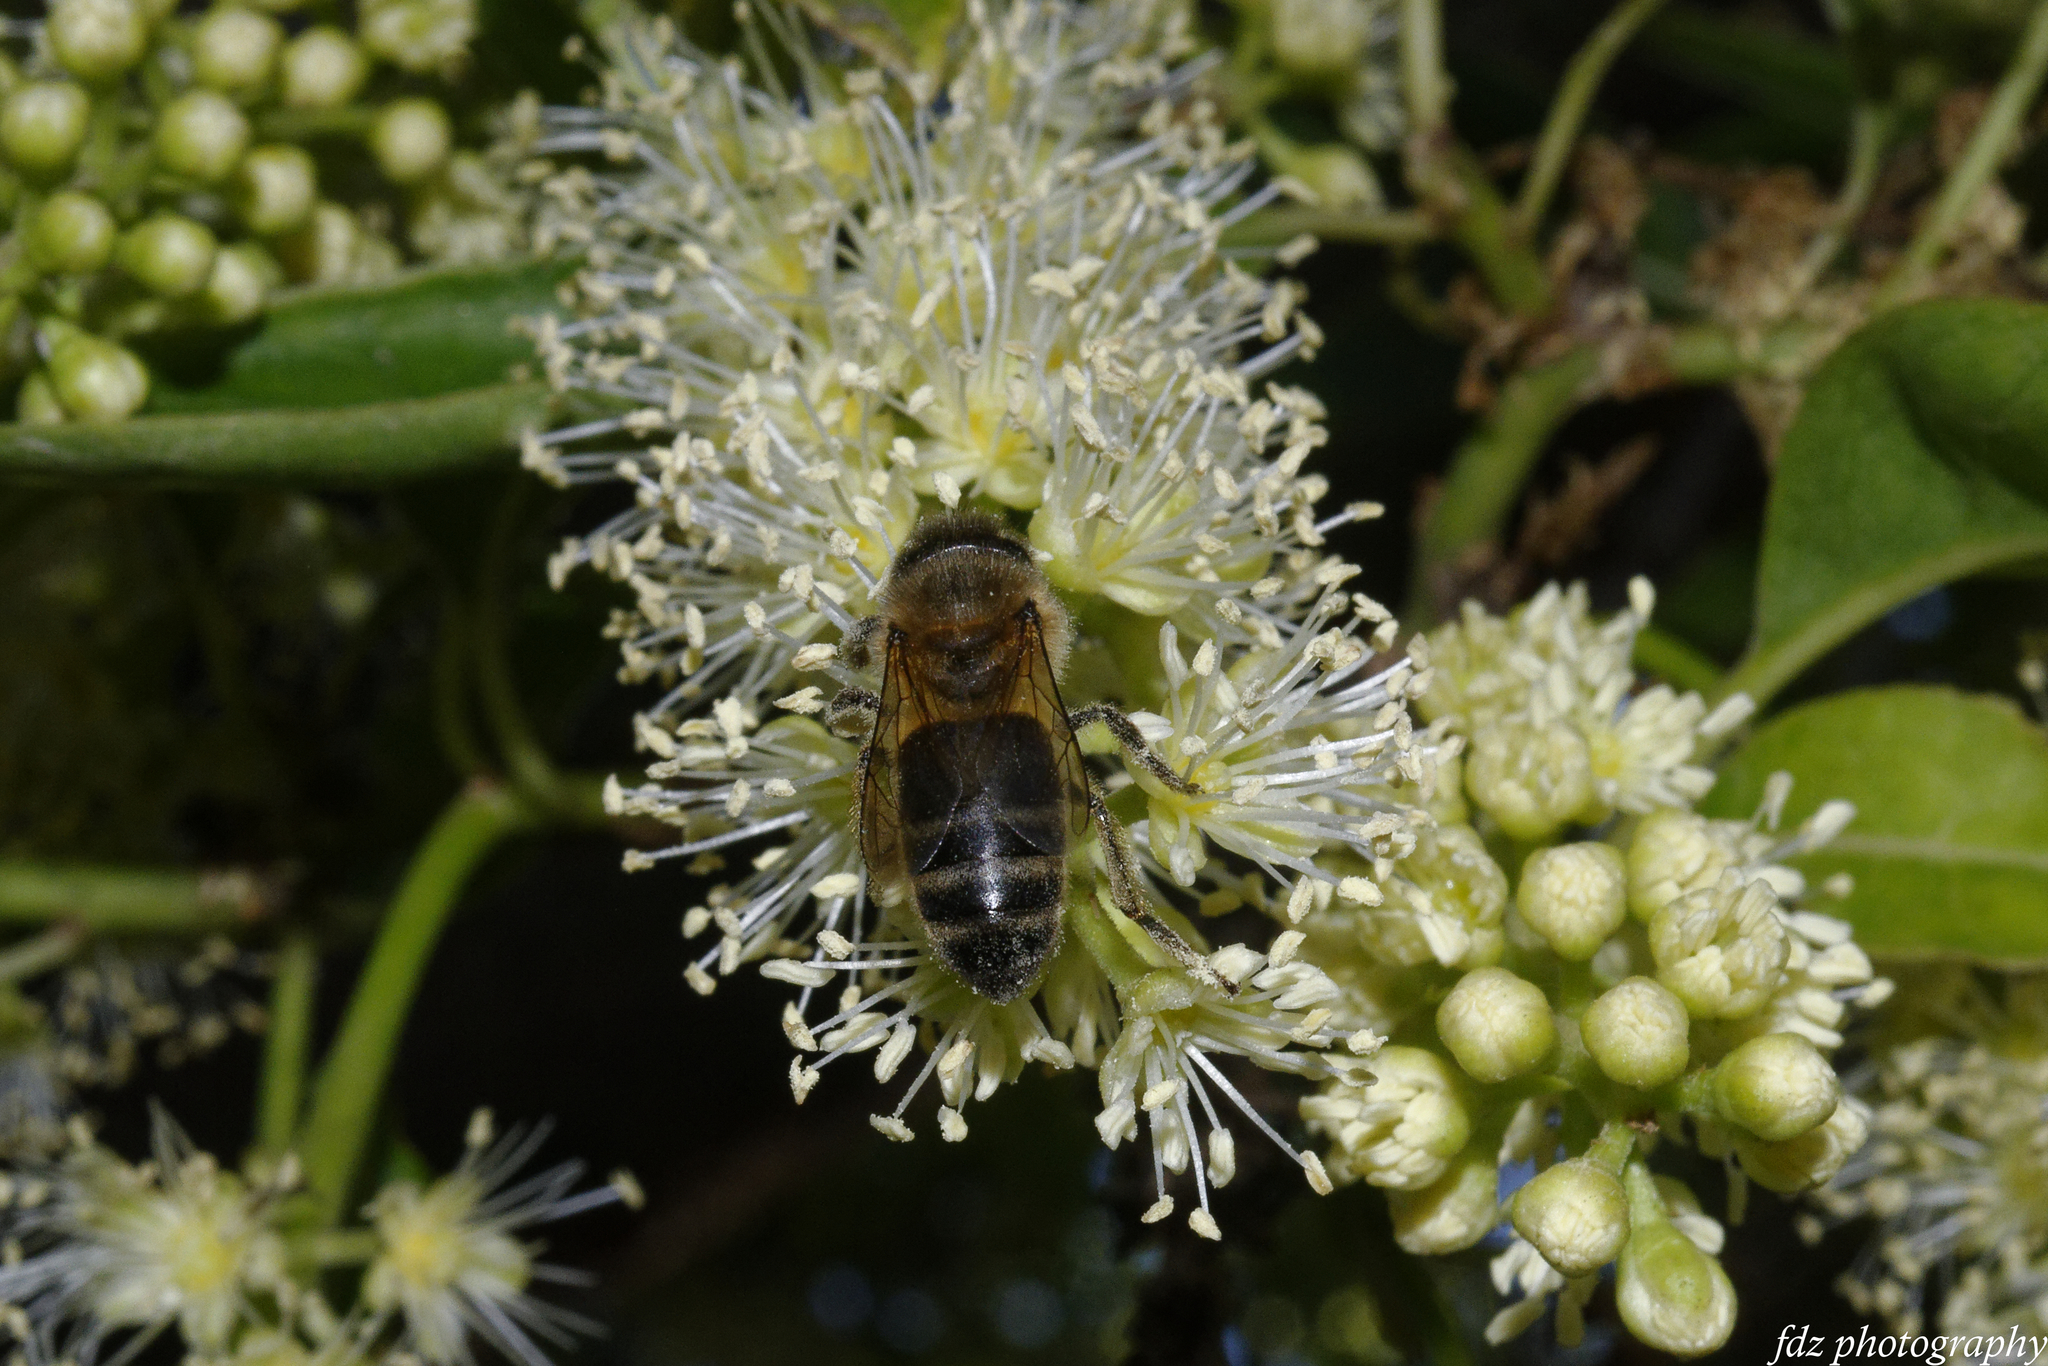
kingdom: Animalia
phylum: Arthropoda
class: Insecta
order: Hymenoptera
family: Apidae
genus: Apis
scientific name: Apis mellifera
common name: Honey bee
